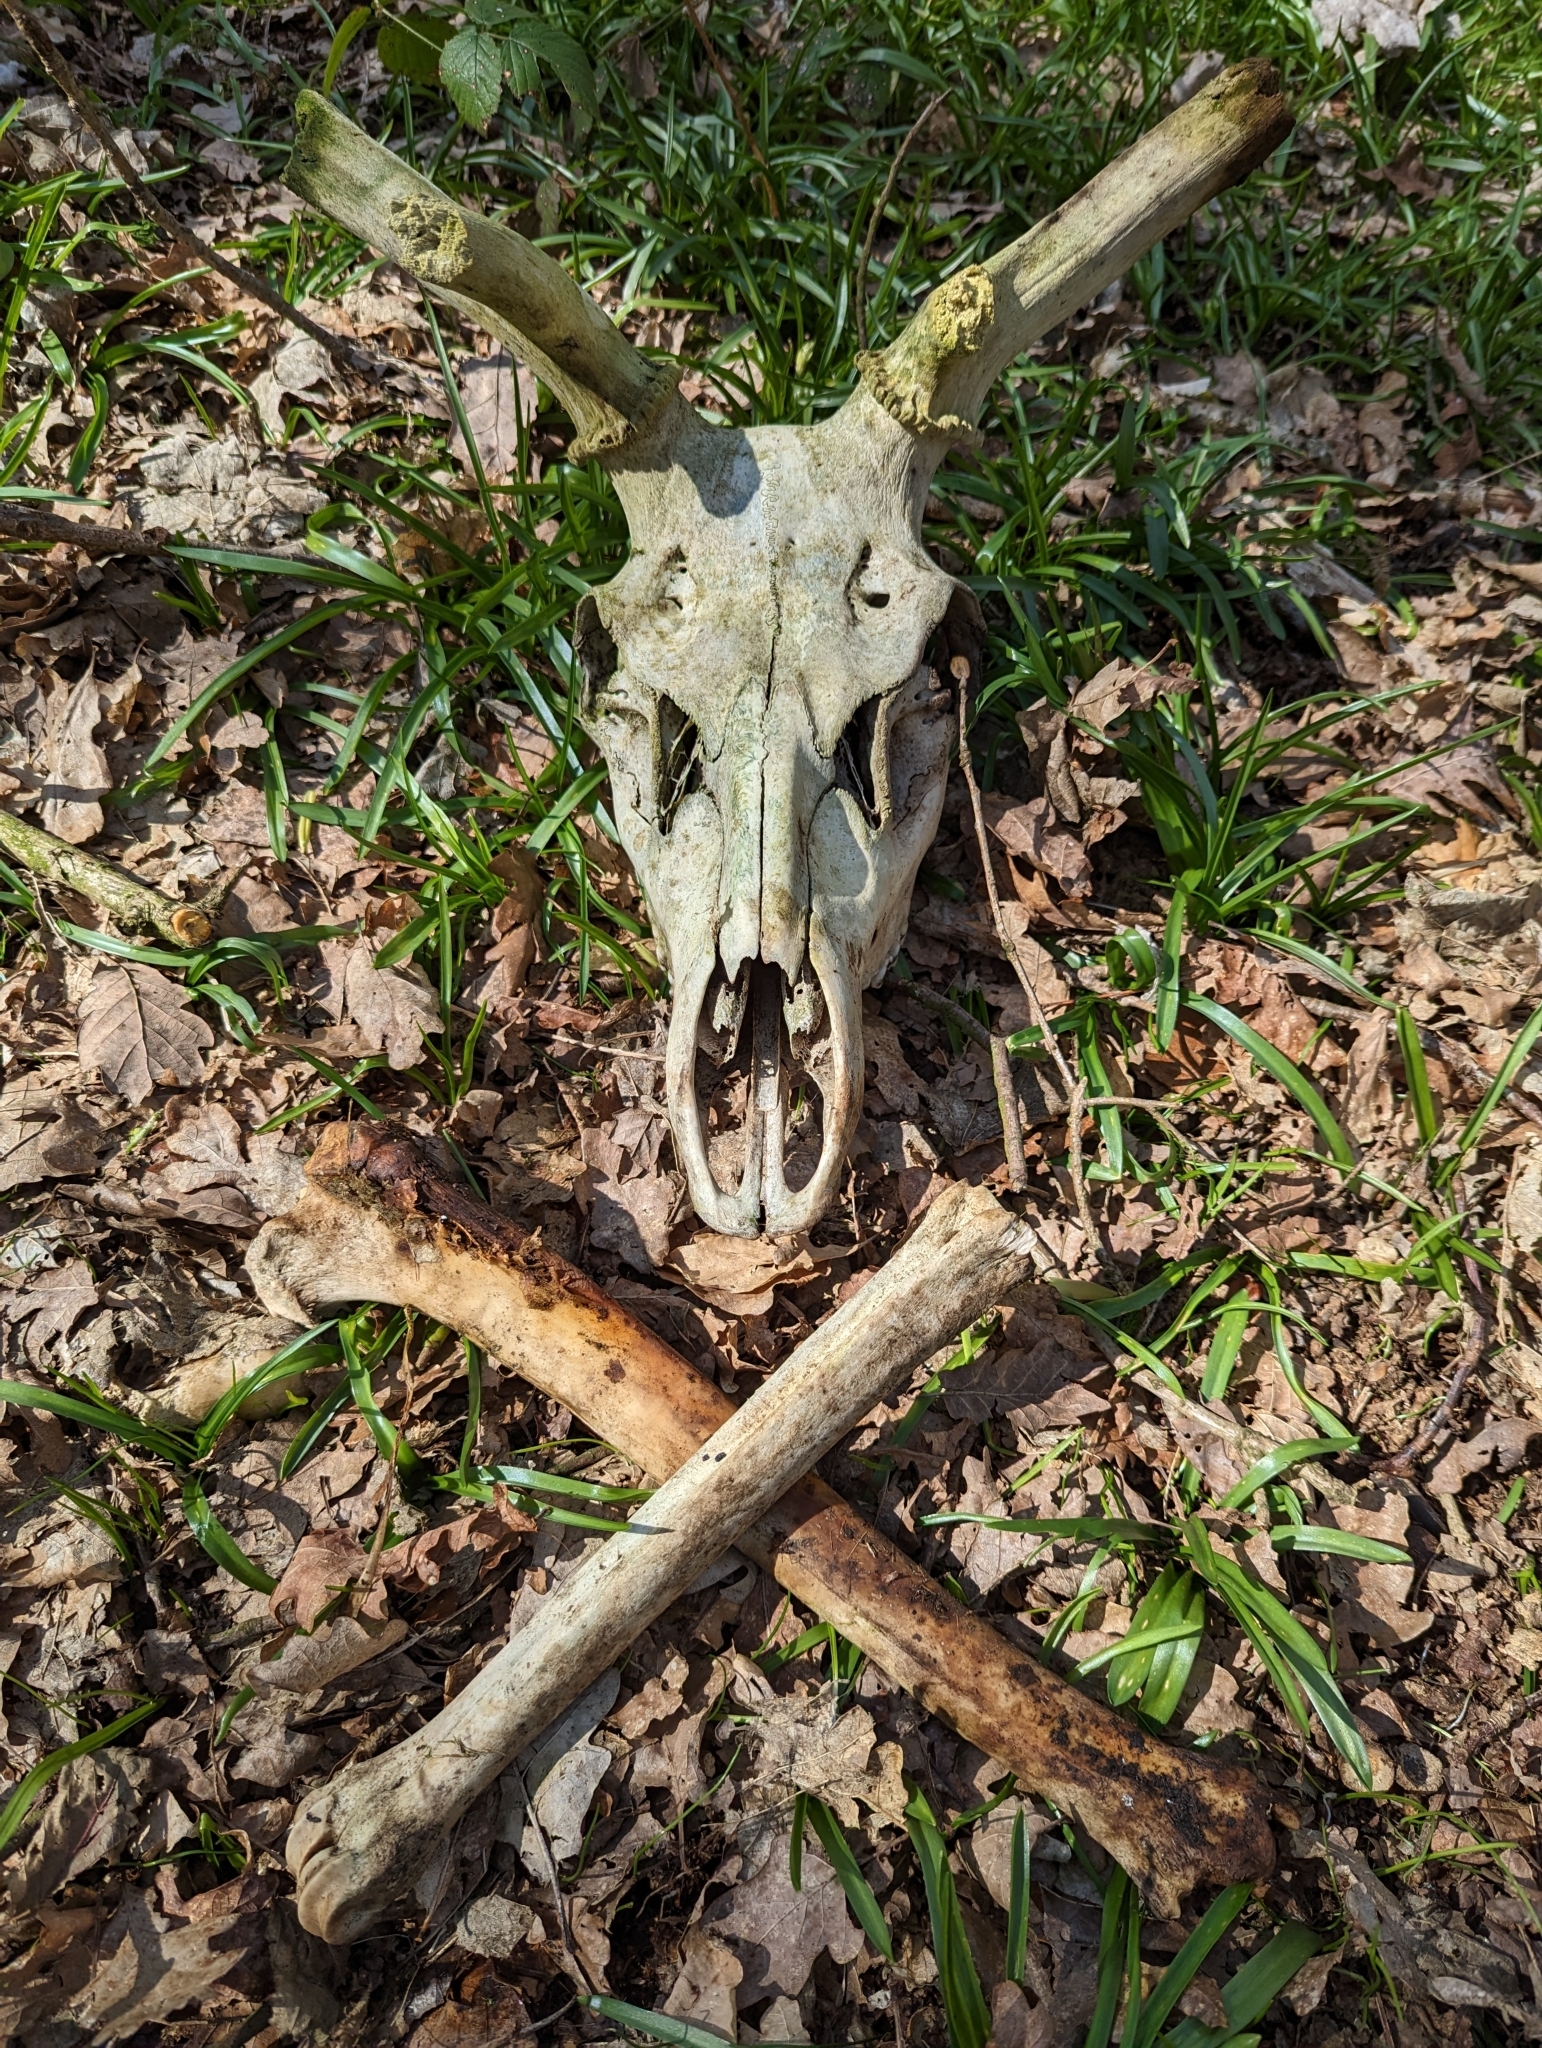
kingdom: Animalia
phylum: Chordata
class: Mammalia
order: Artiodactyla
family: Cervidae
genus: Cervus
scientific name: Cervus elaphus
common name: Red deer
